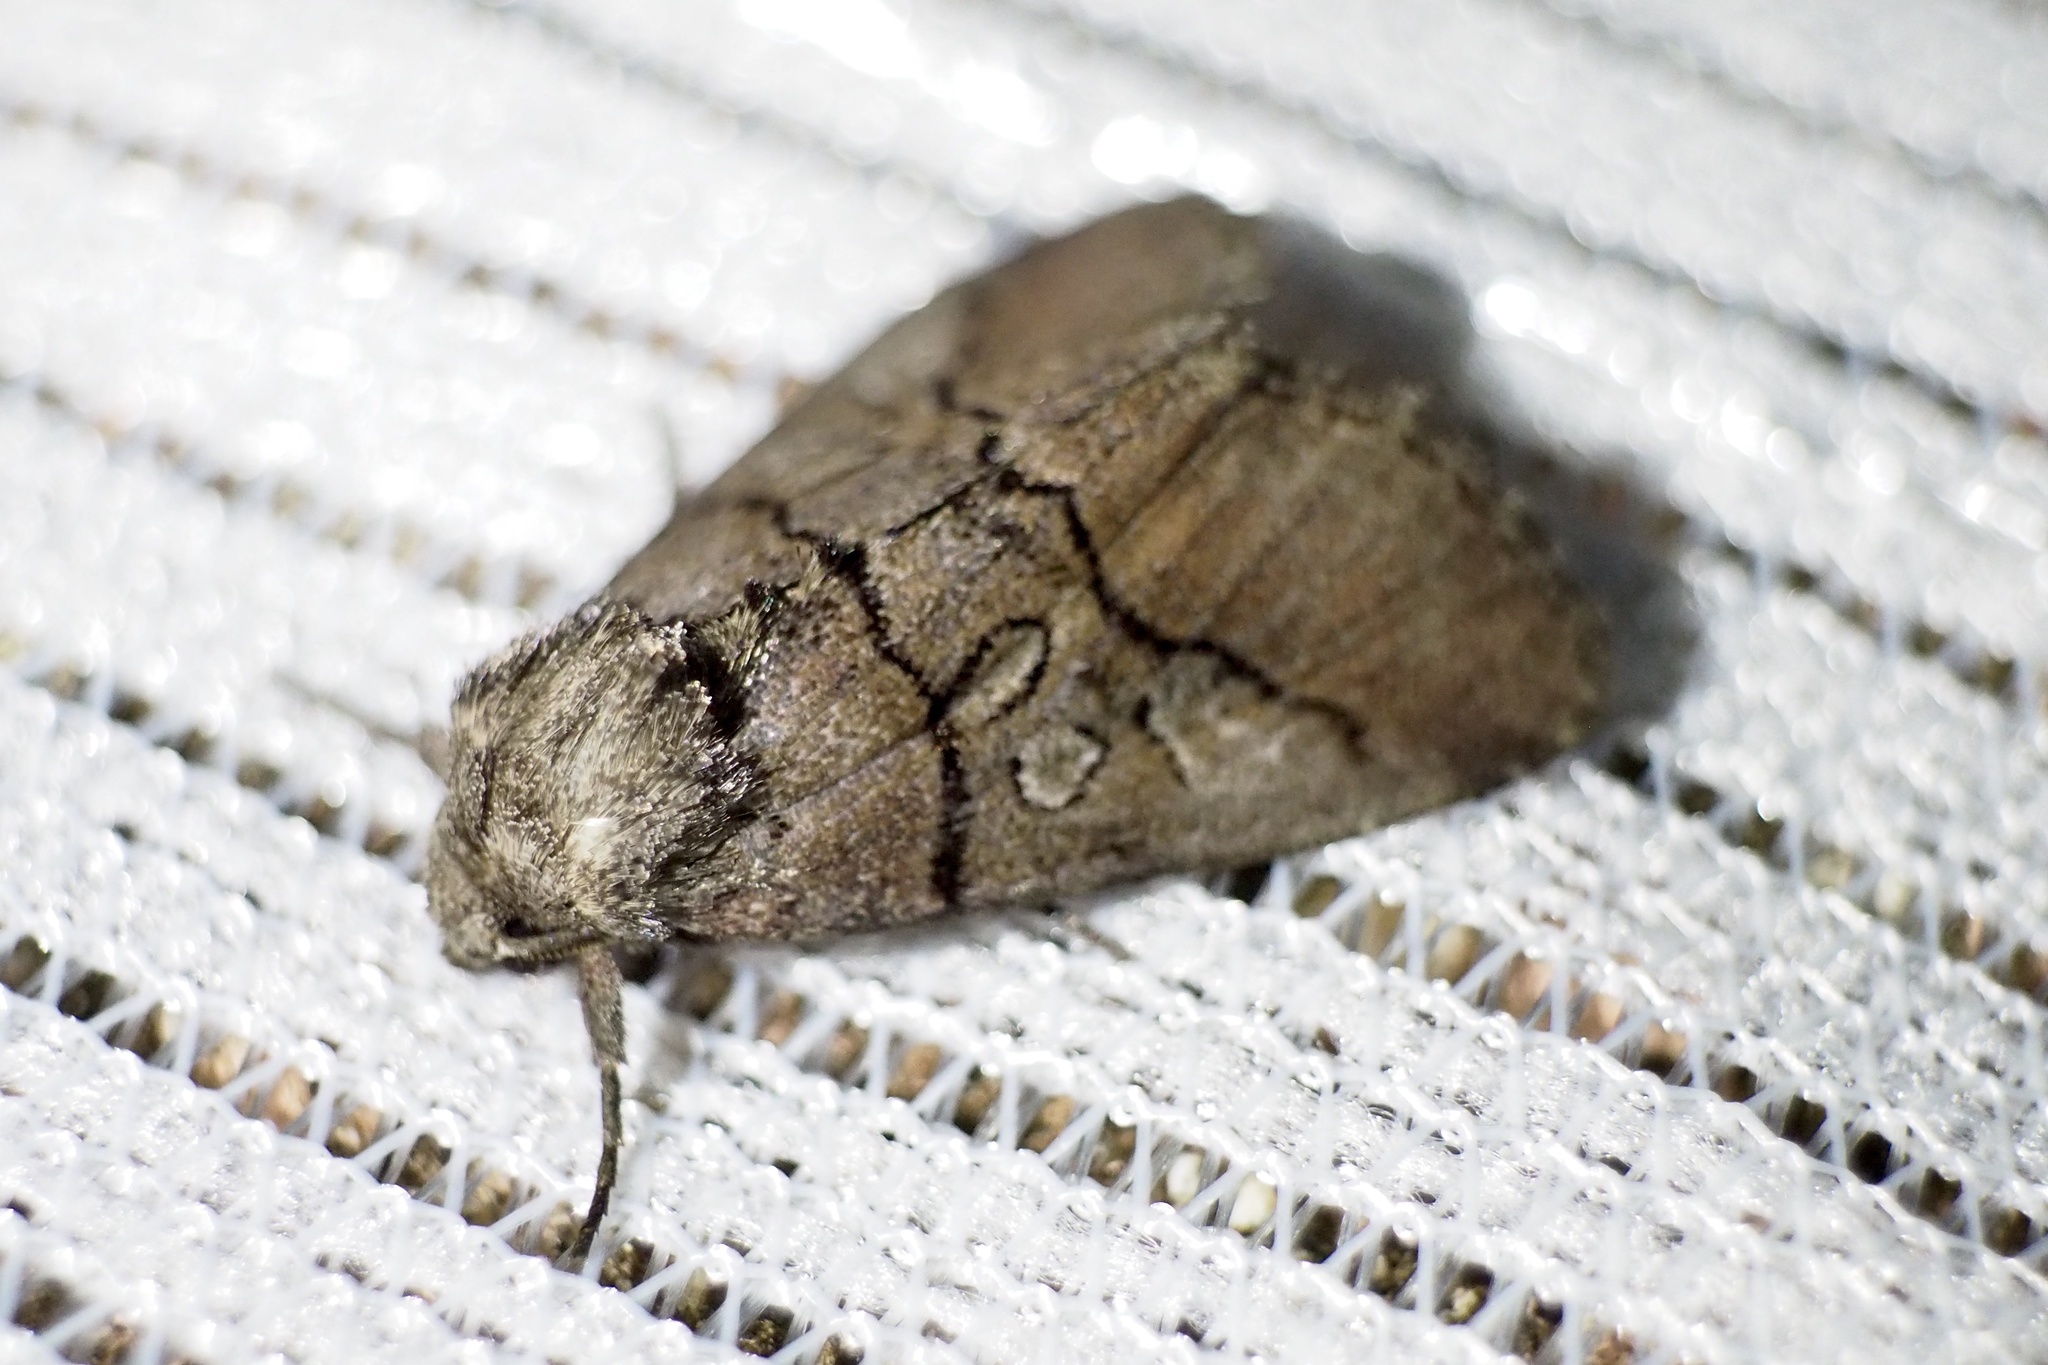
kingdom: Animalia
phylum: Arthropoda
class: Insecta
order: Lepidoptera
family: Noctuidae
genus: Protomiselia
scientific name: Protomiselia bilinea
